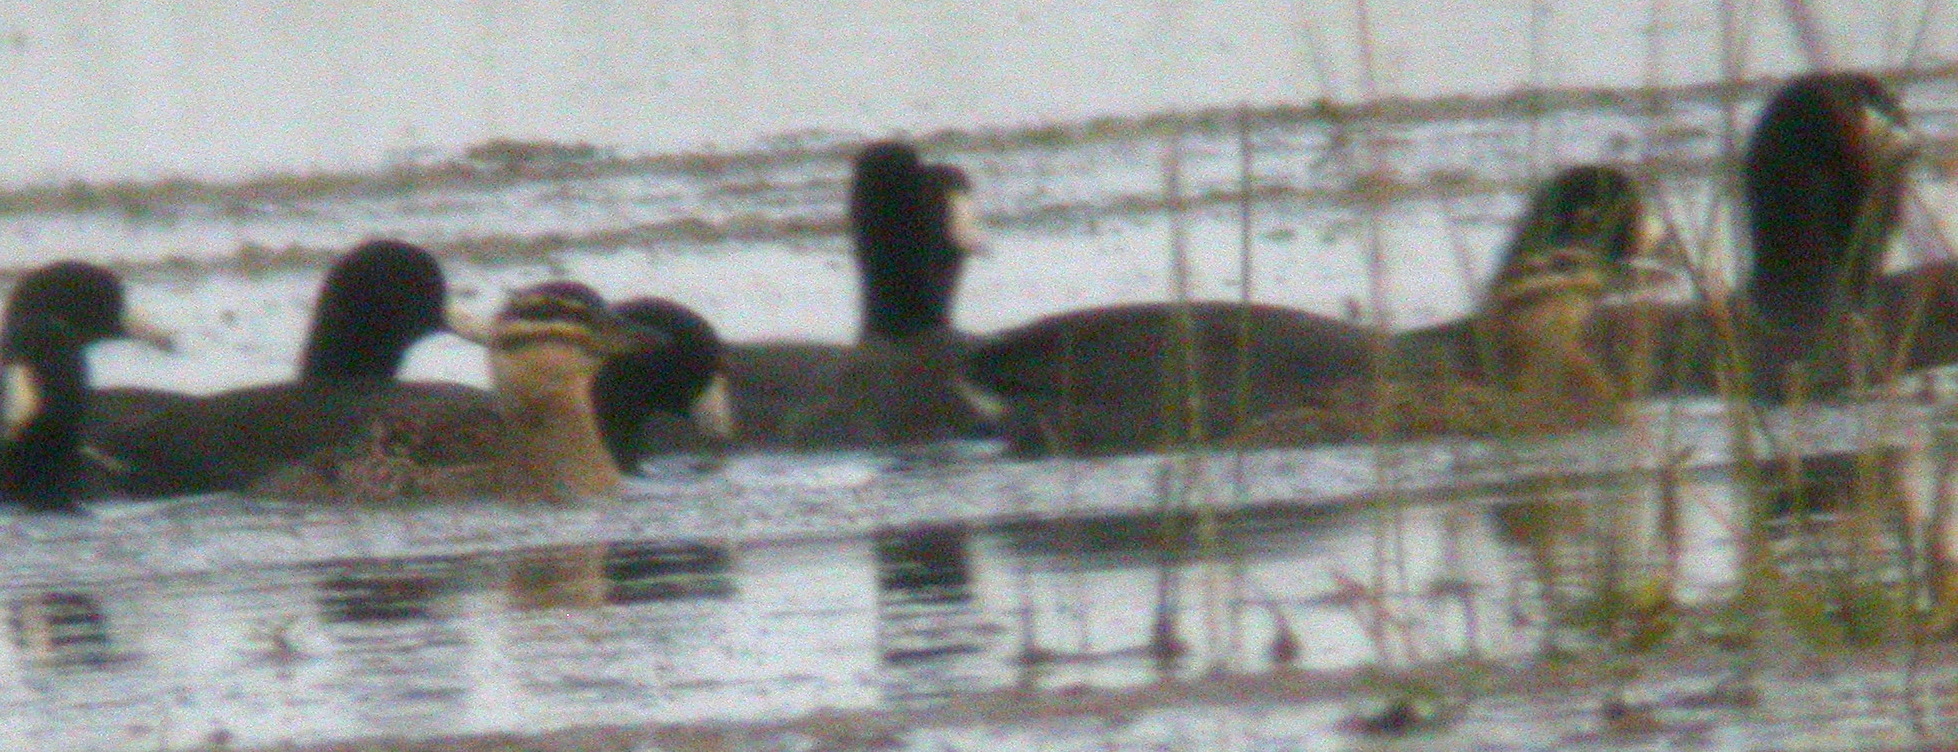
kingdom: Animalia
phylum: Chordata
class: Aves
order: Anseriformes
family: Anatidae
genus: Nomonyx
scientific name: Nomonyx dominicus
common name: Masked duck
